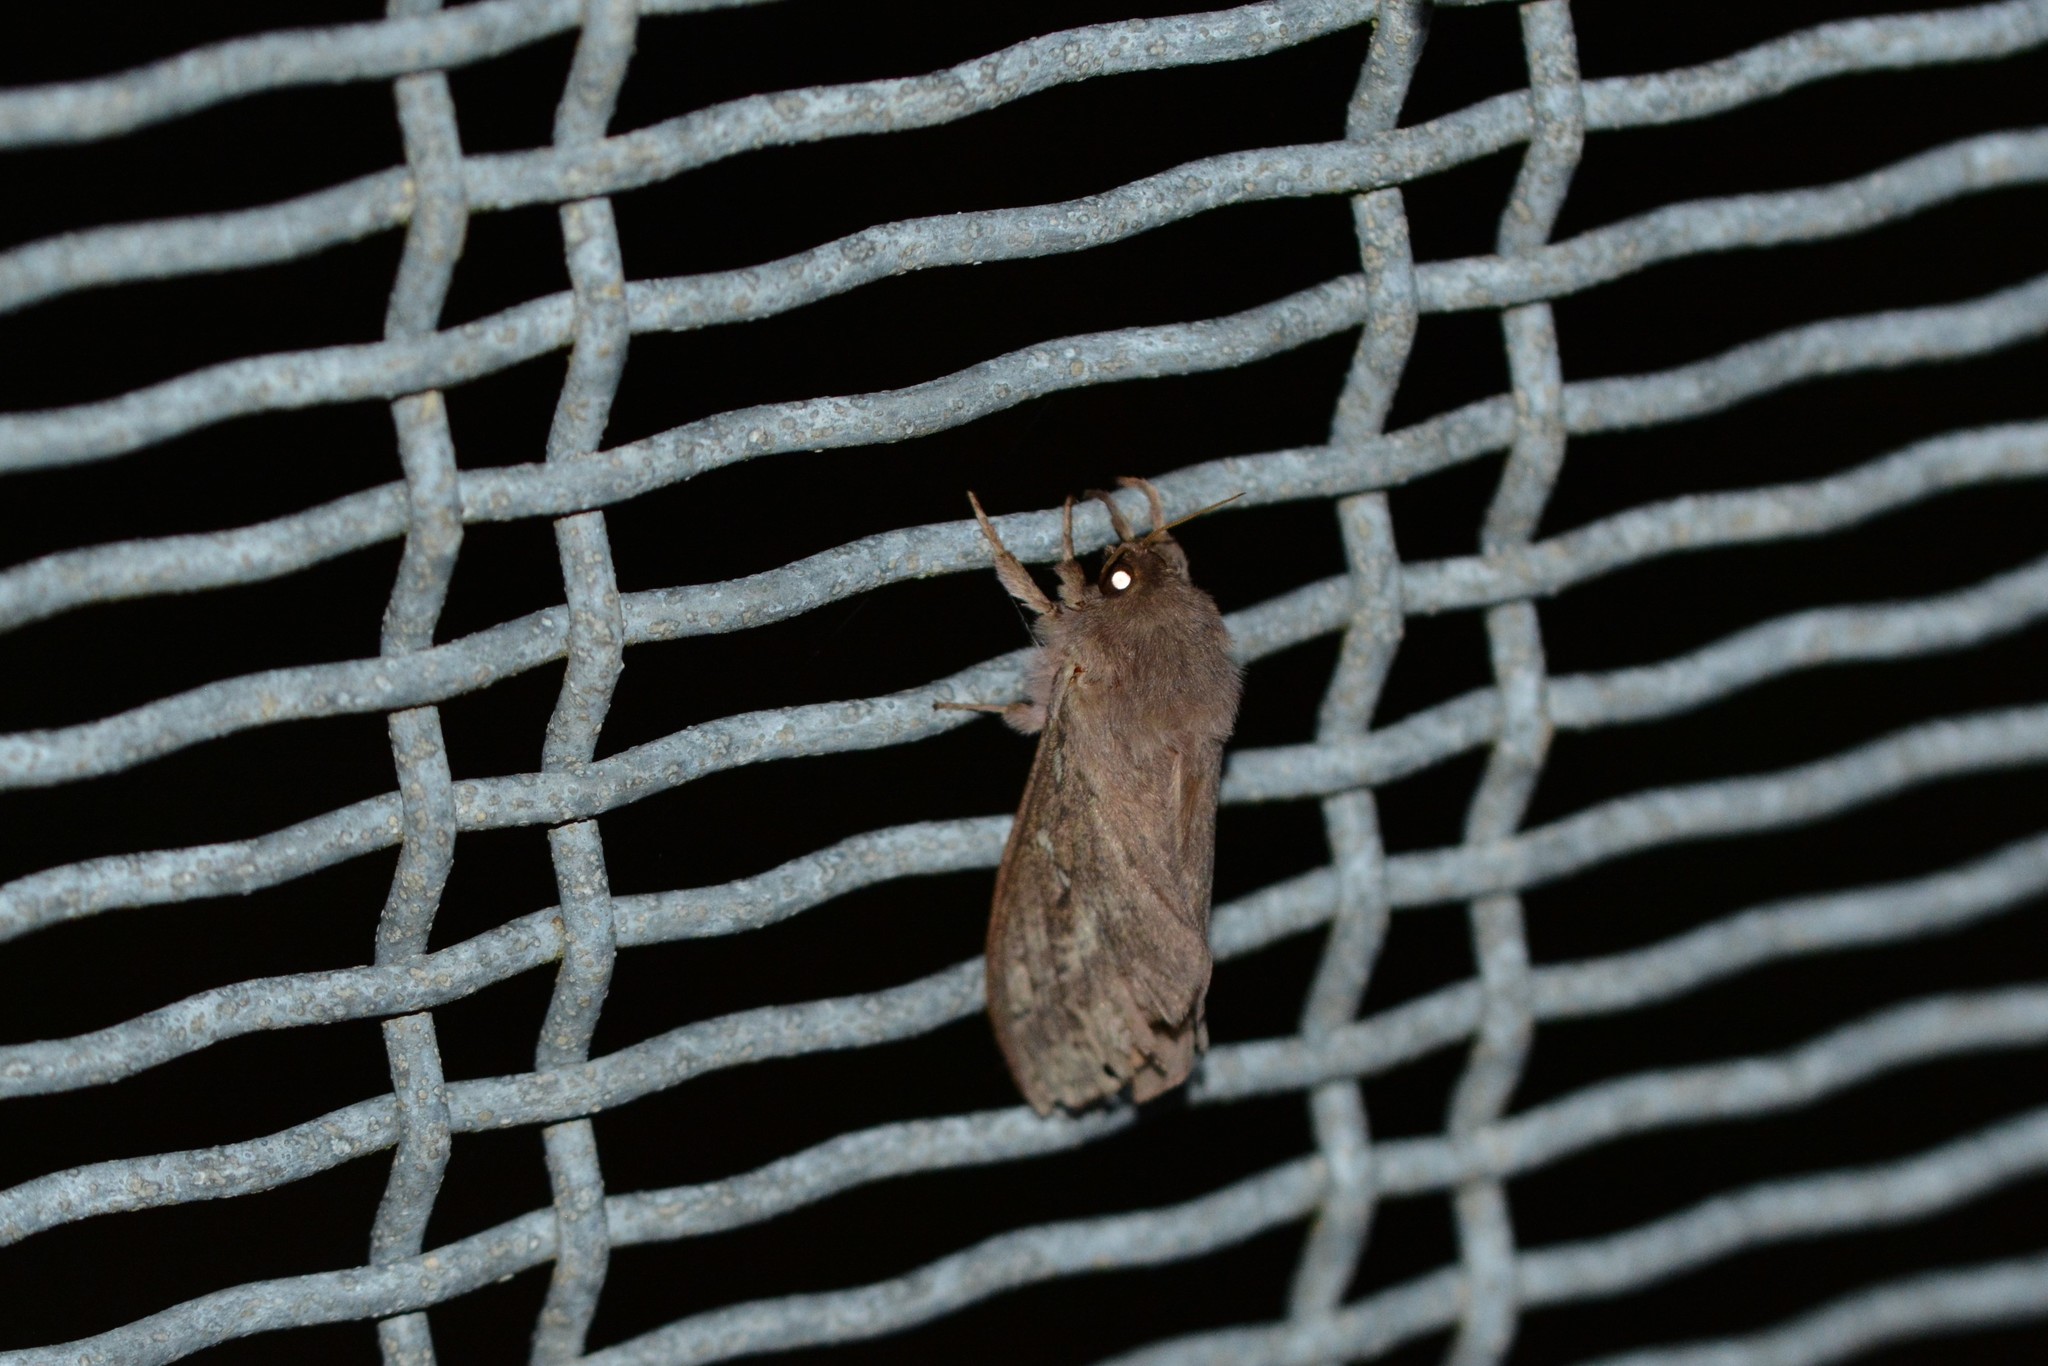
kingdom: Animalia
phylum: Arthropoda
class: Insecta
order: Lepidoptera
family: Hepialidae
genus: Wiseana
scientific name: Wiseana cervinata
